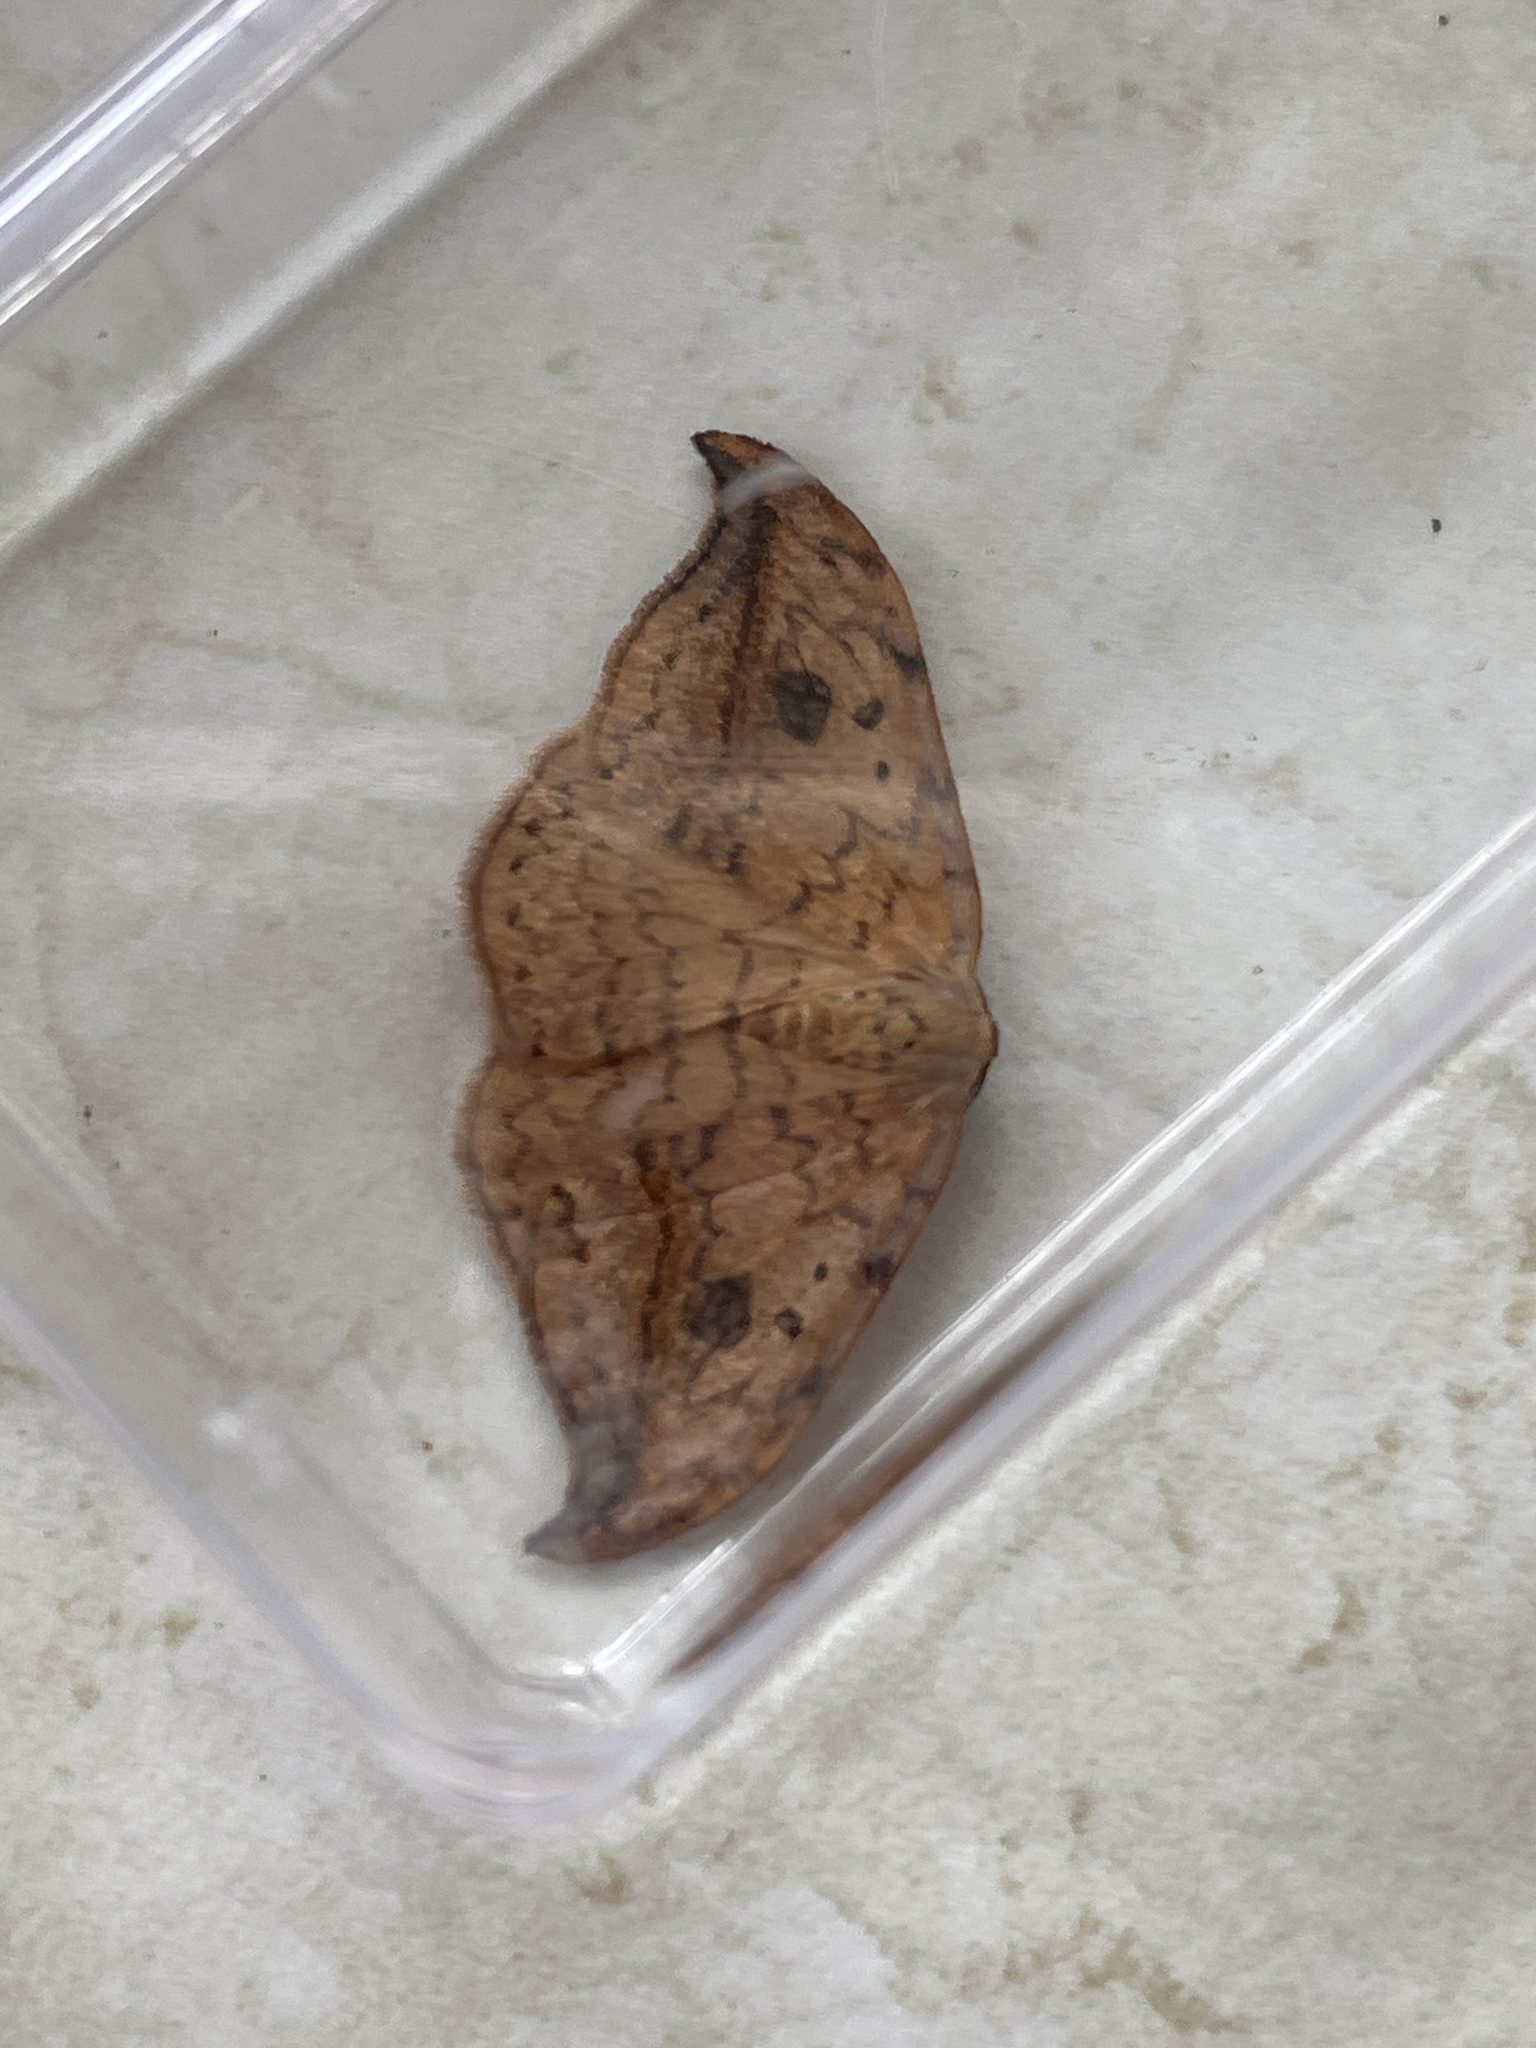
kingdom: Animalia
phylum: Arthropoda
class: Insecta
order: Lepidoptera
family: Drepanidae
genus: Drepana
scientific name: Drepana falcataria
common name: Pebble hook-tip
